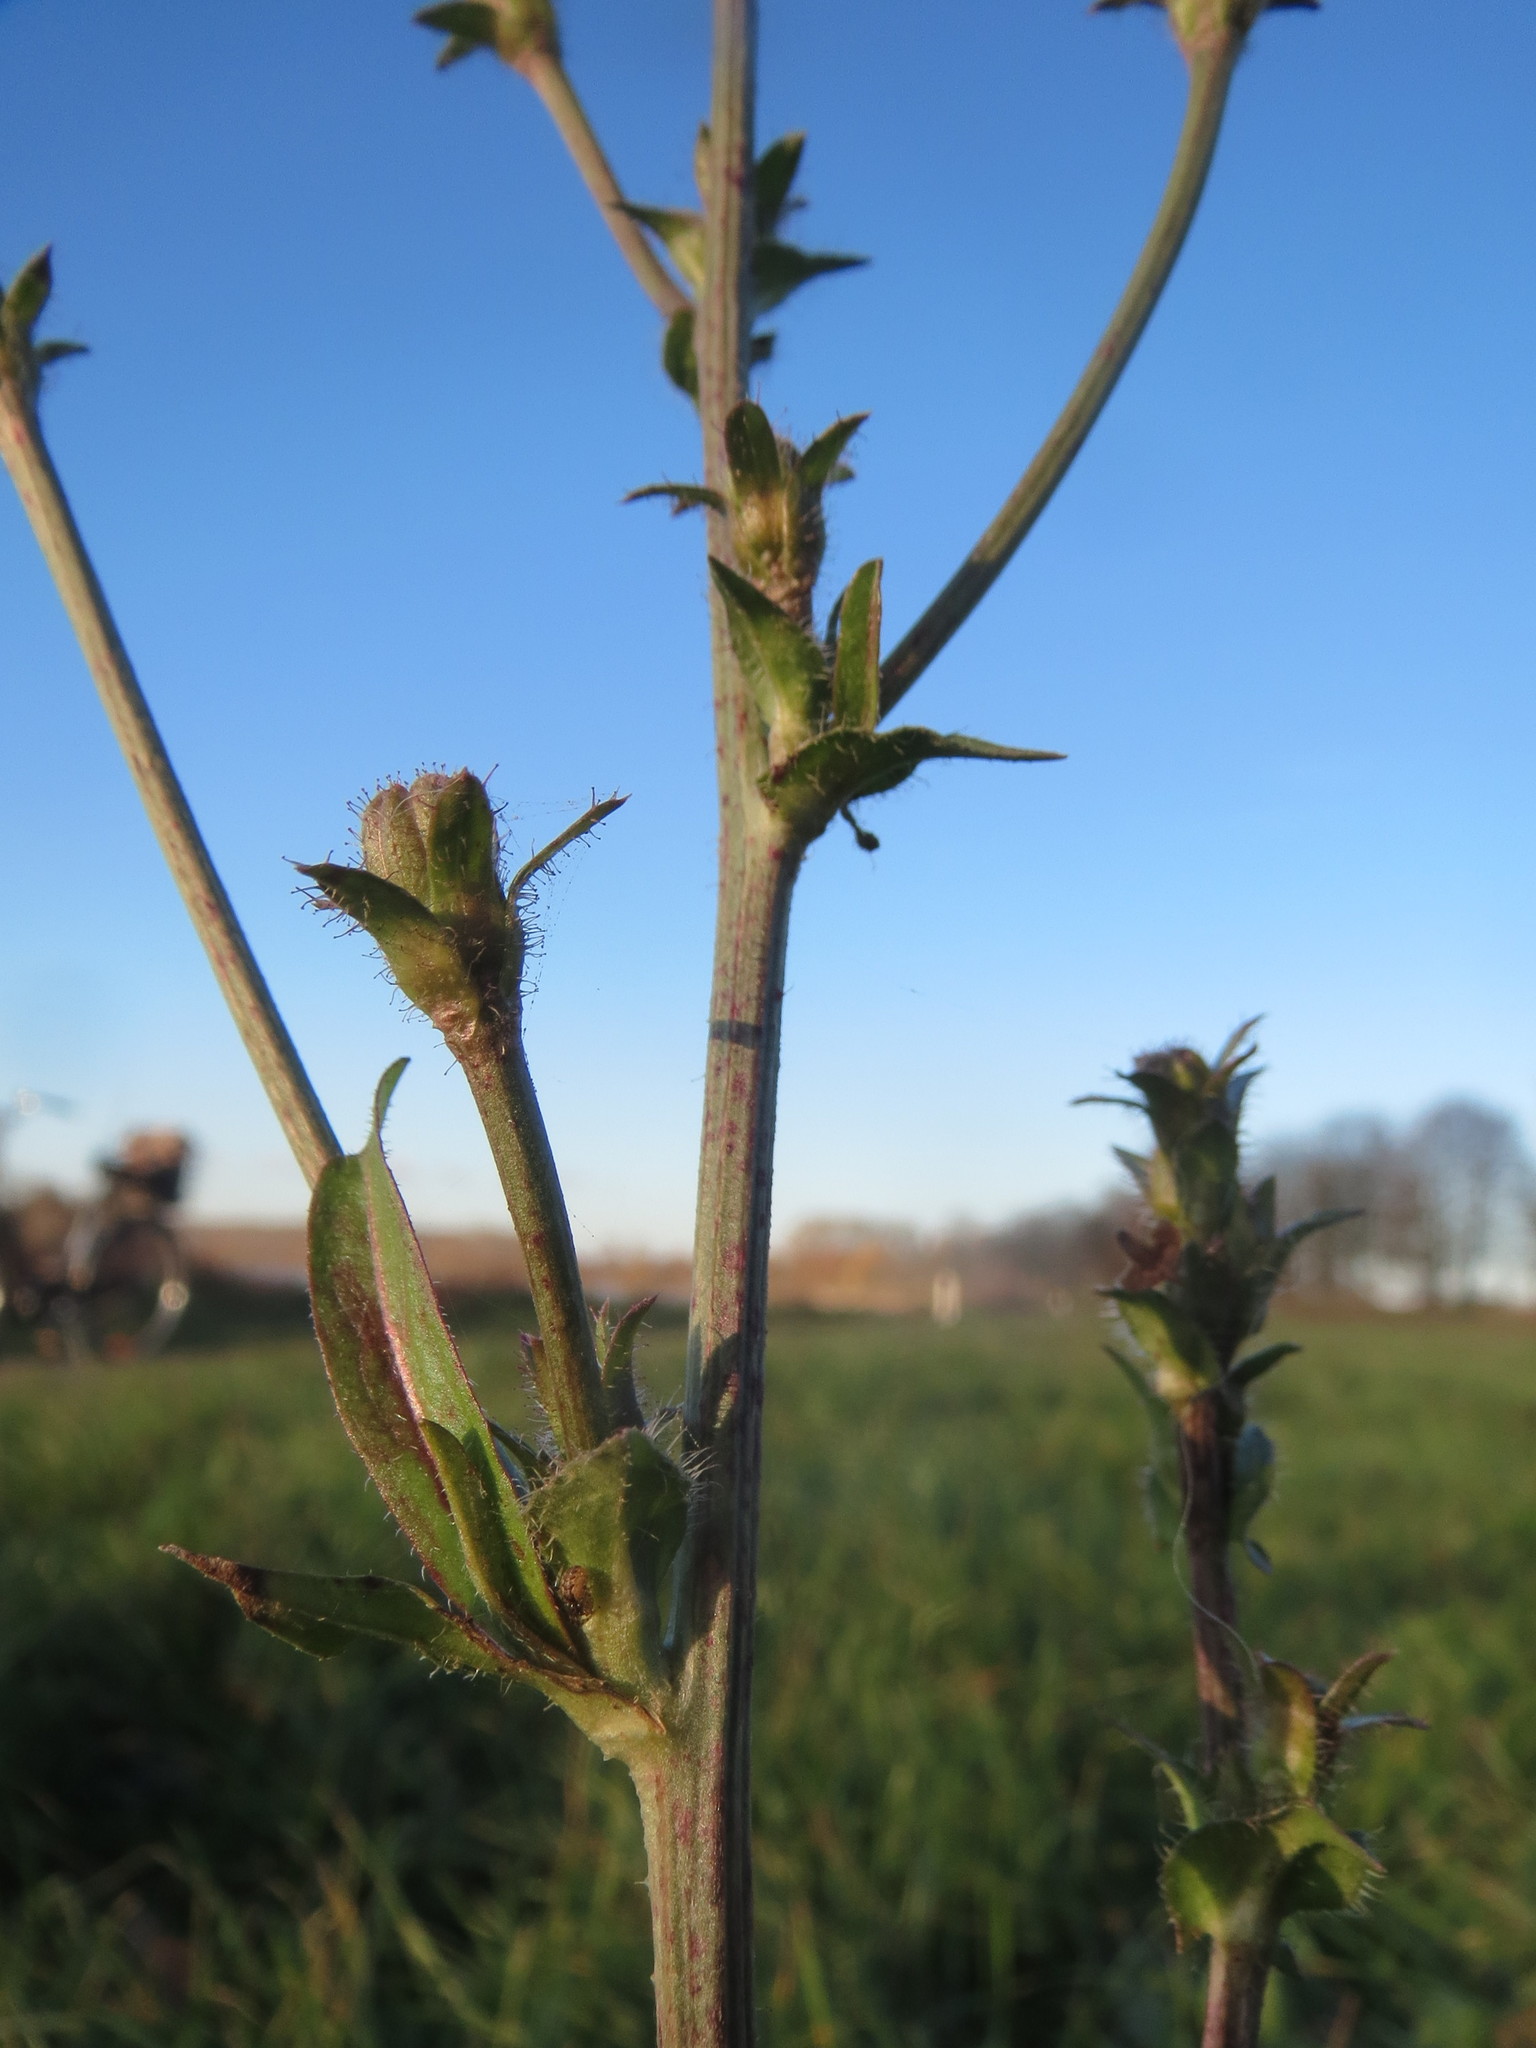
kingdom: Plantae
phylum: Tracheophyta
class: Magnoliopsida
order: Asterales
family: Asteraceae
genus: Cichorium
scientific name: Cichorium intybus
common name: Chicory
